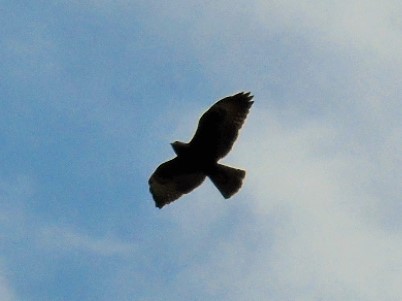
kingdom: Animalia
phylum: Chordata
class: Aves
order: Accipitriformes
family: Accipitridae
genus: Buteo
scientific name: Buteo
